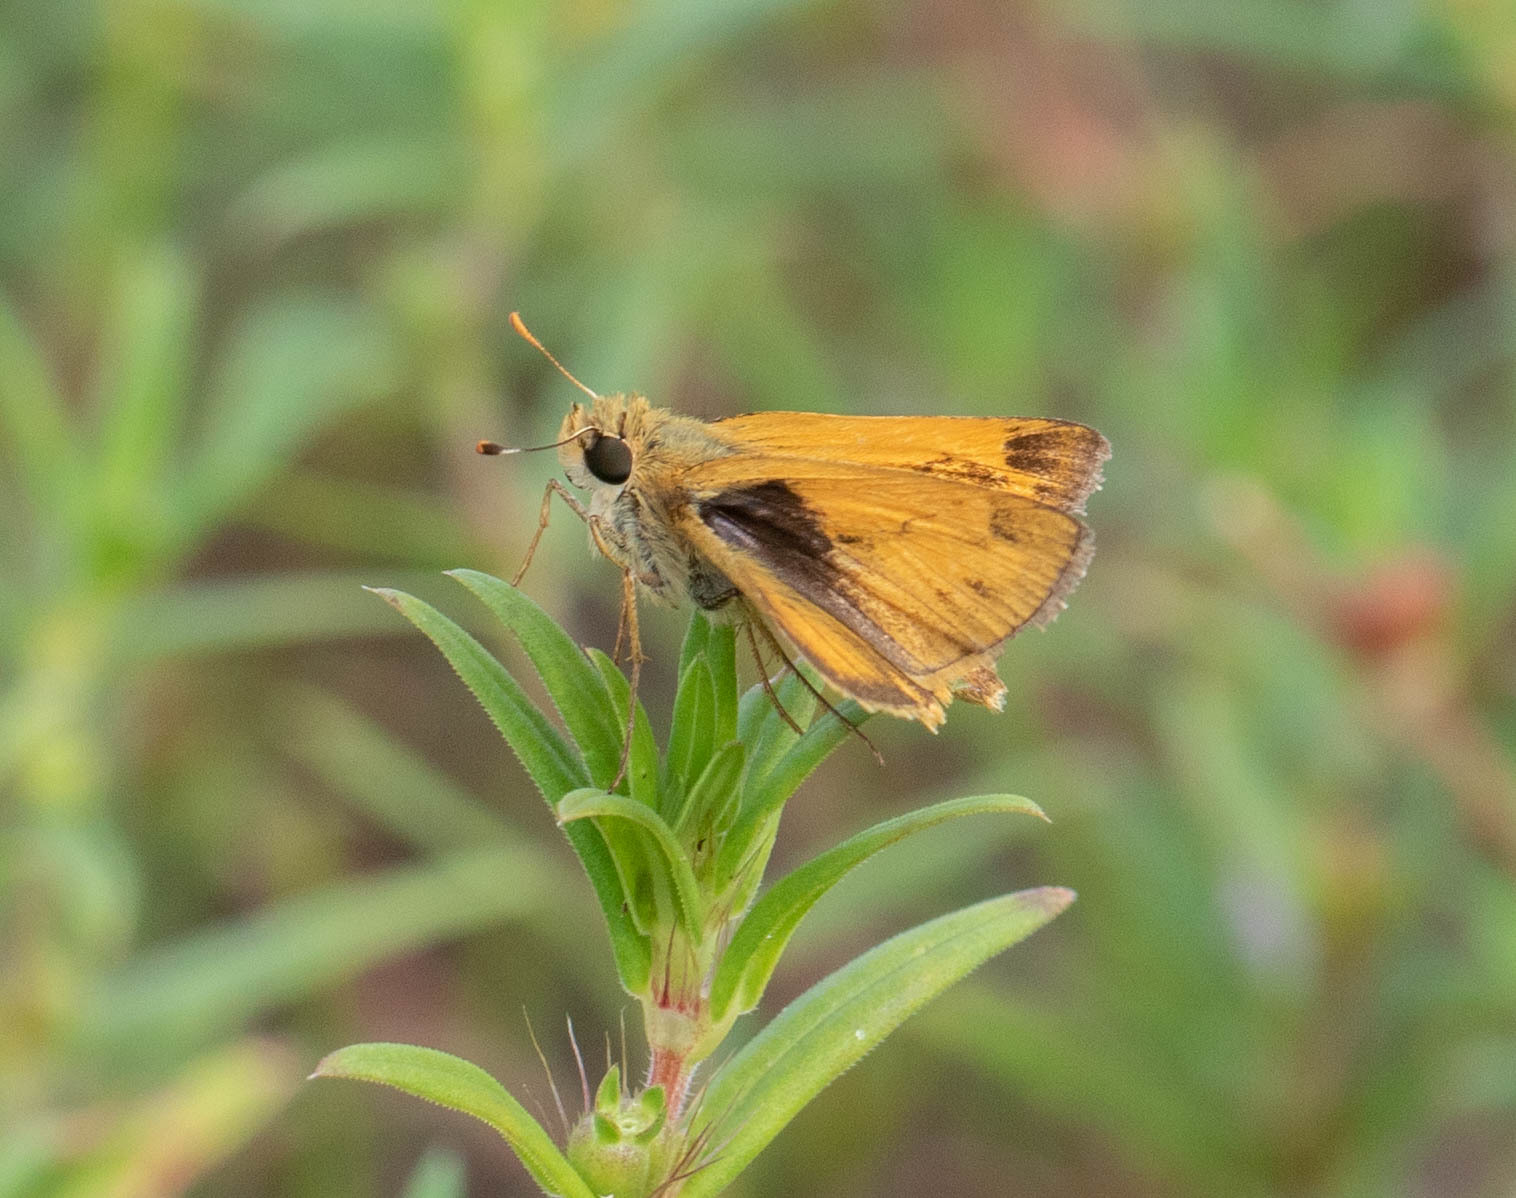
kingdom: Animalia
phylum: Arthropoda
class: Insecta
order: Lepidoptera
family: Hesperiidae
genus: Polites
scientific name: Polites vibex
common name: Whirlabout
